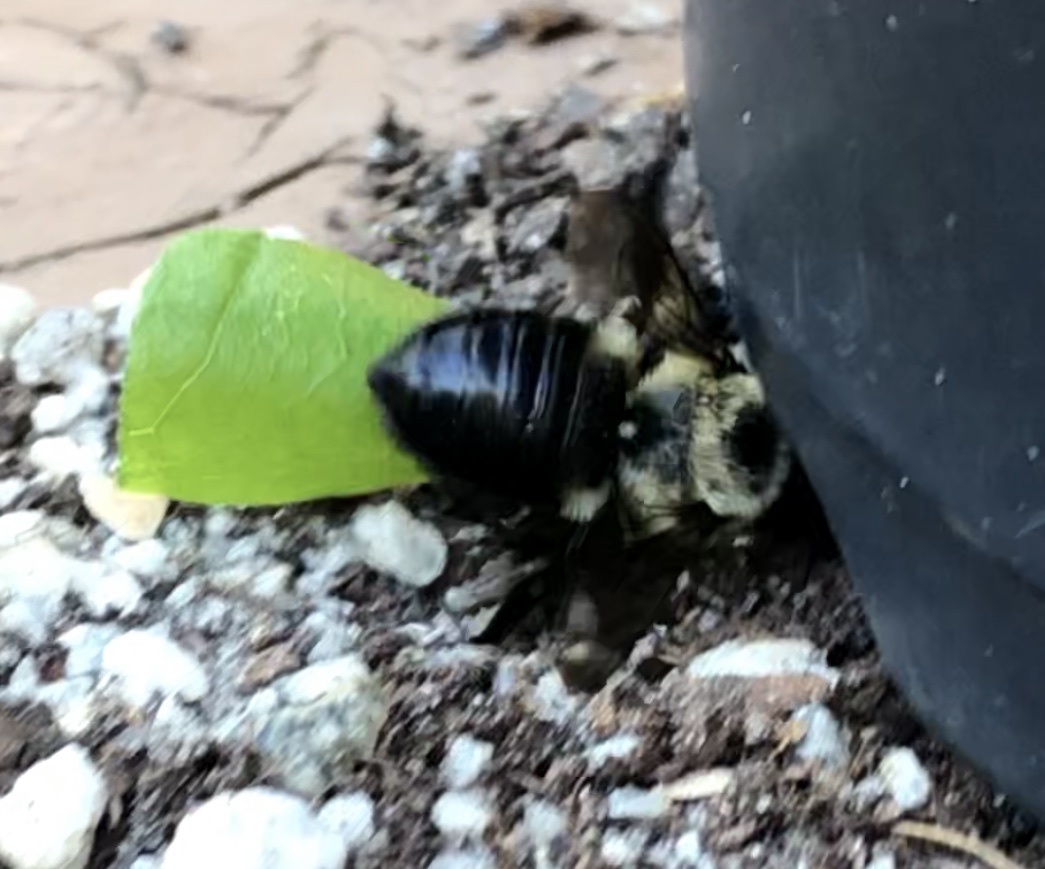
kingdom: Animalia
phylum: Arthropoda
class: Insecta
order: Hymenoptera
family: Megachilidae
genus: Megachile
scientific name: Megachile mucida
